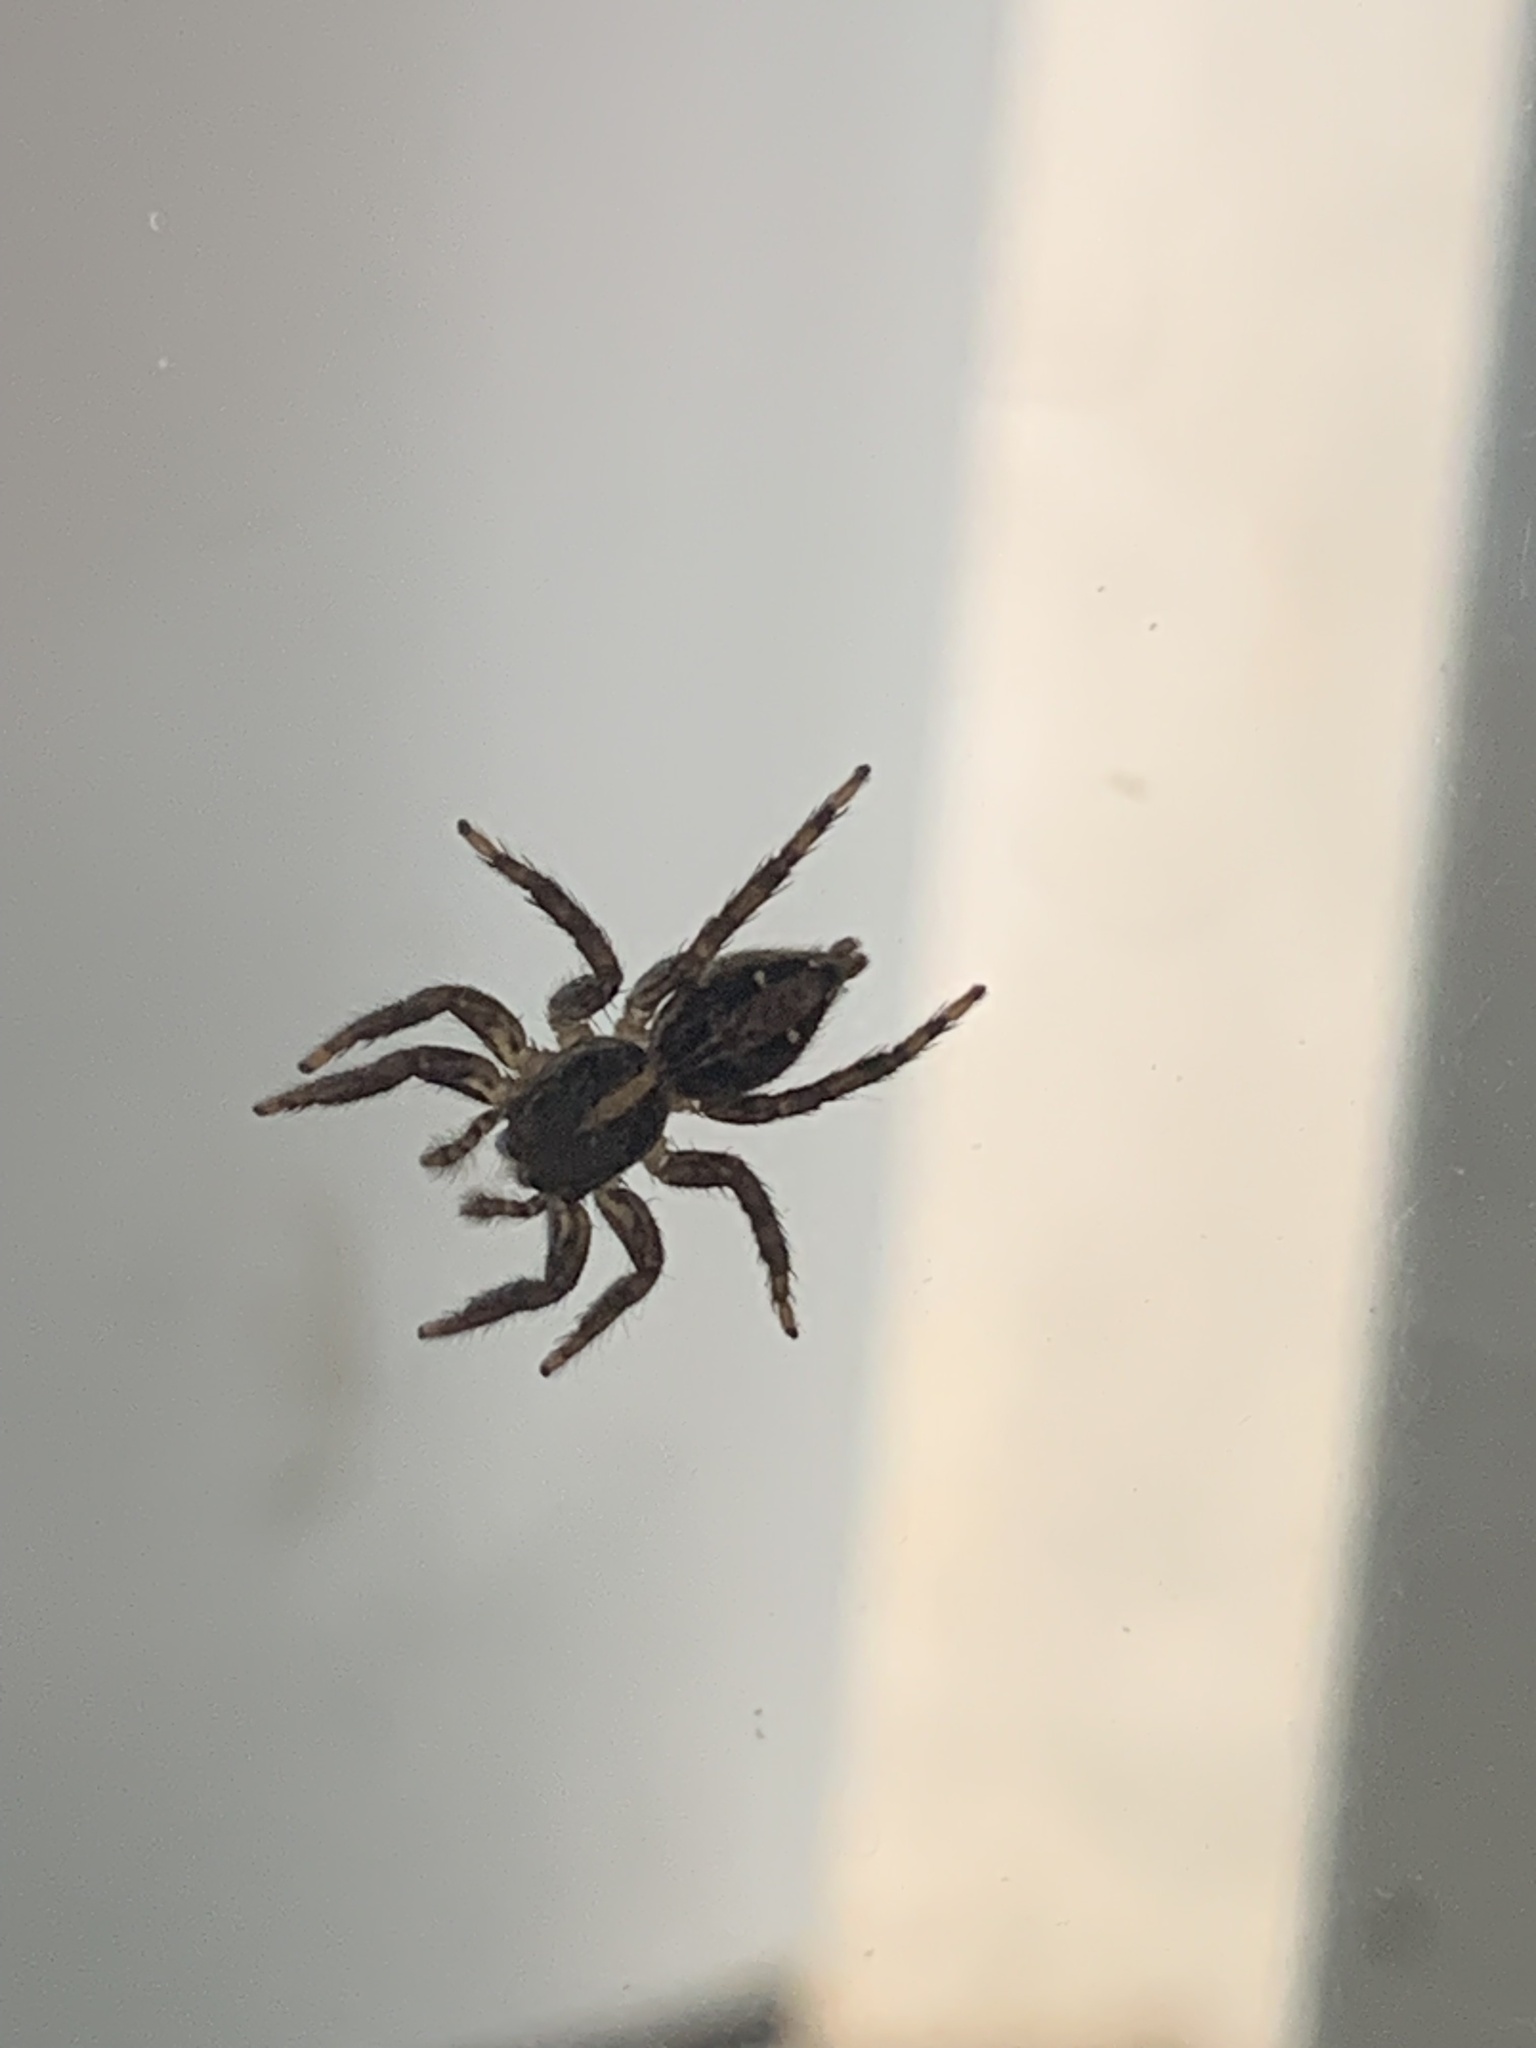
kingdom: Animalia
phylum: Arthropoda
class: Arachnida
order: Araneae
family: Salticidae
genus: Plexippus
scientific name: Plexippus paykulli
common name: Pantropical jumper
